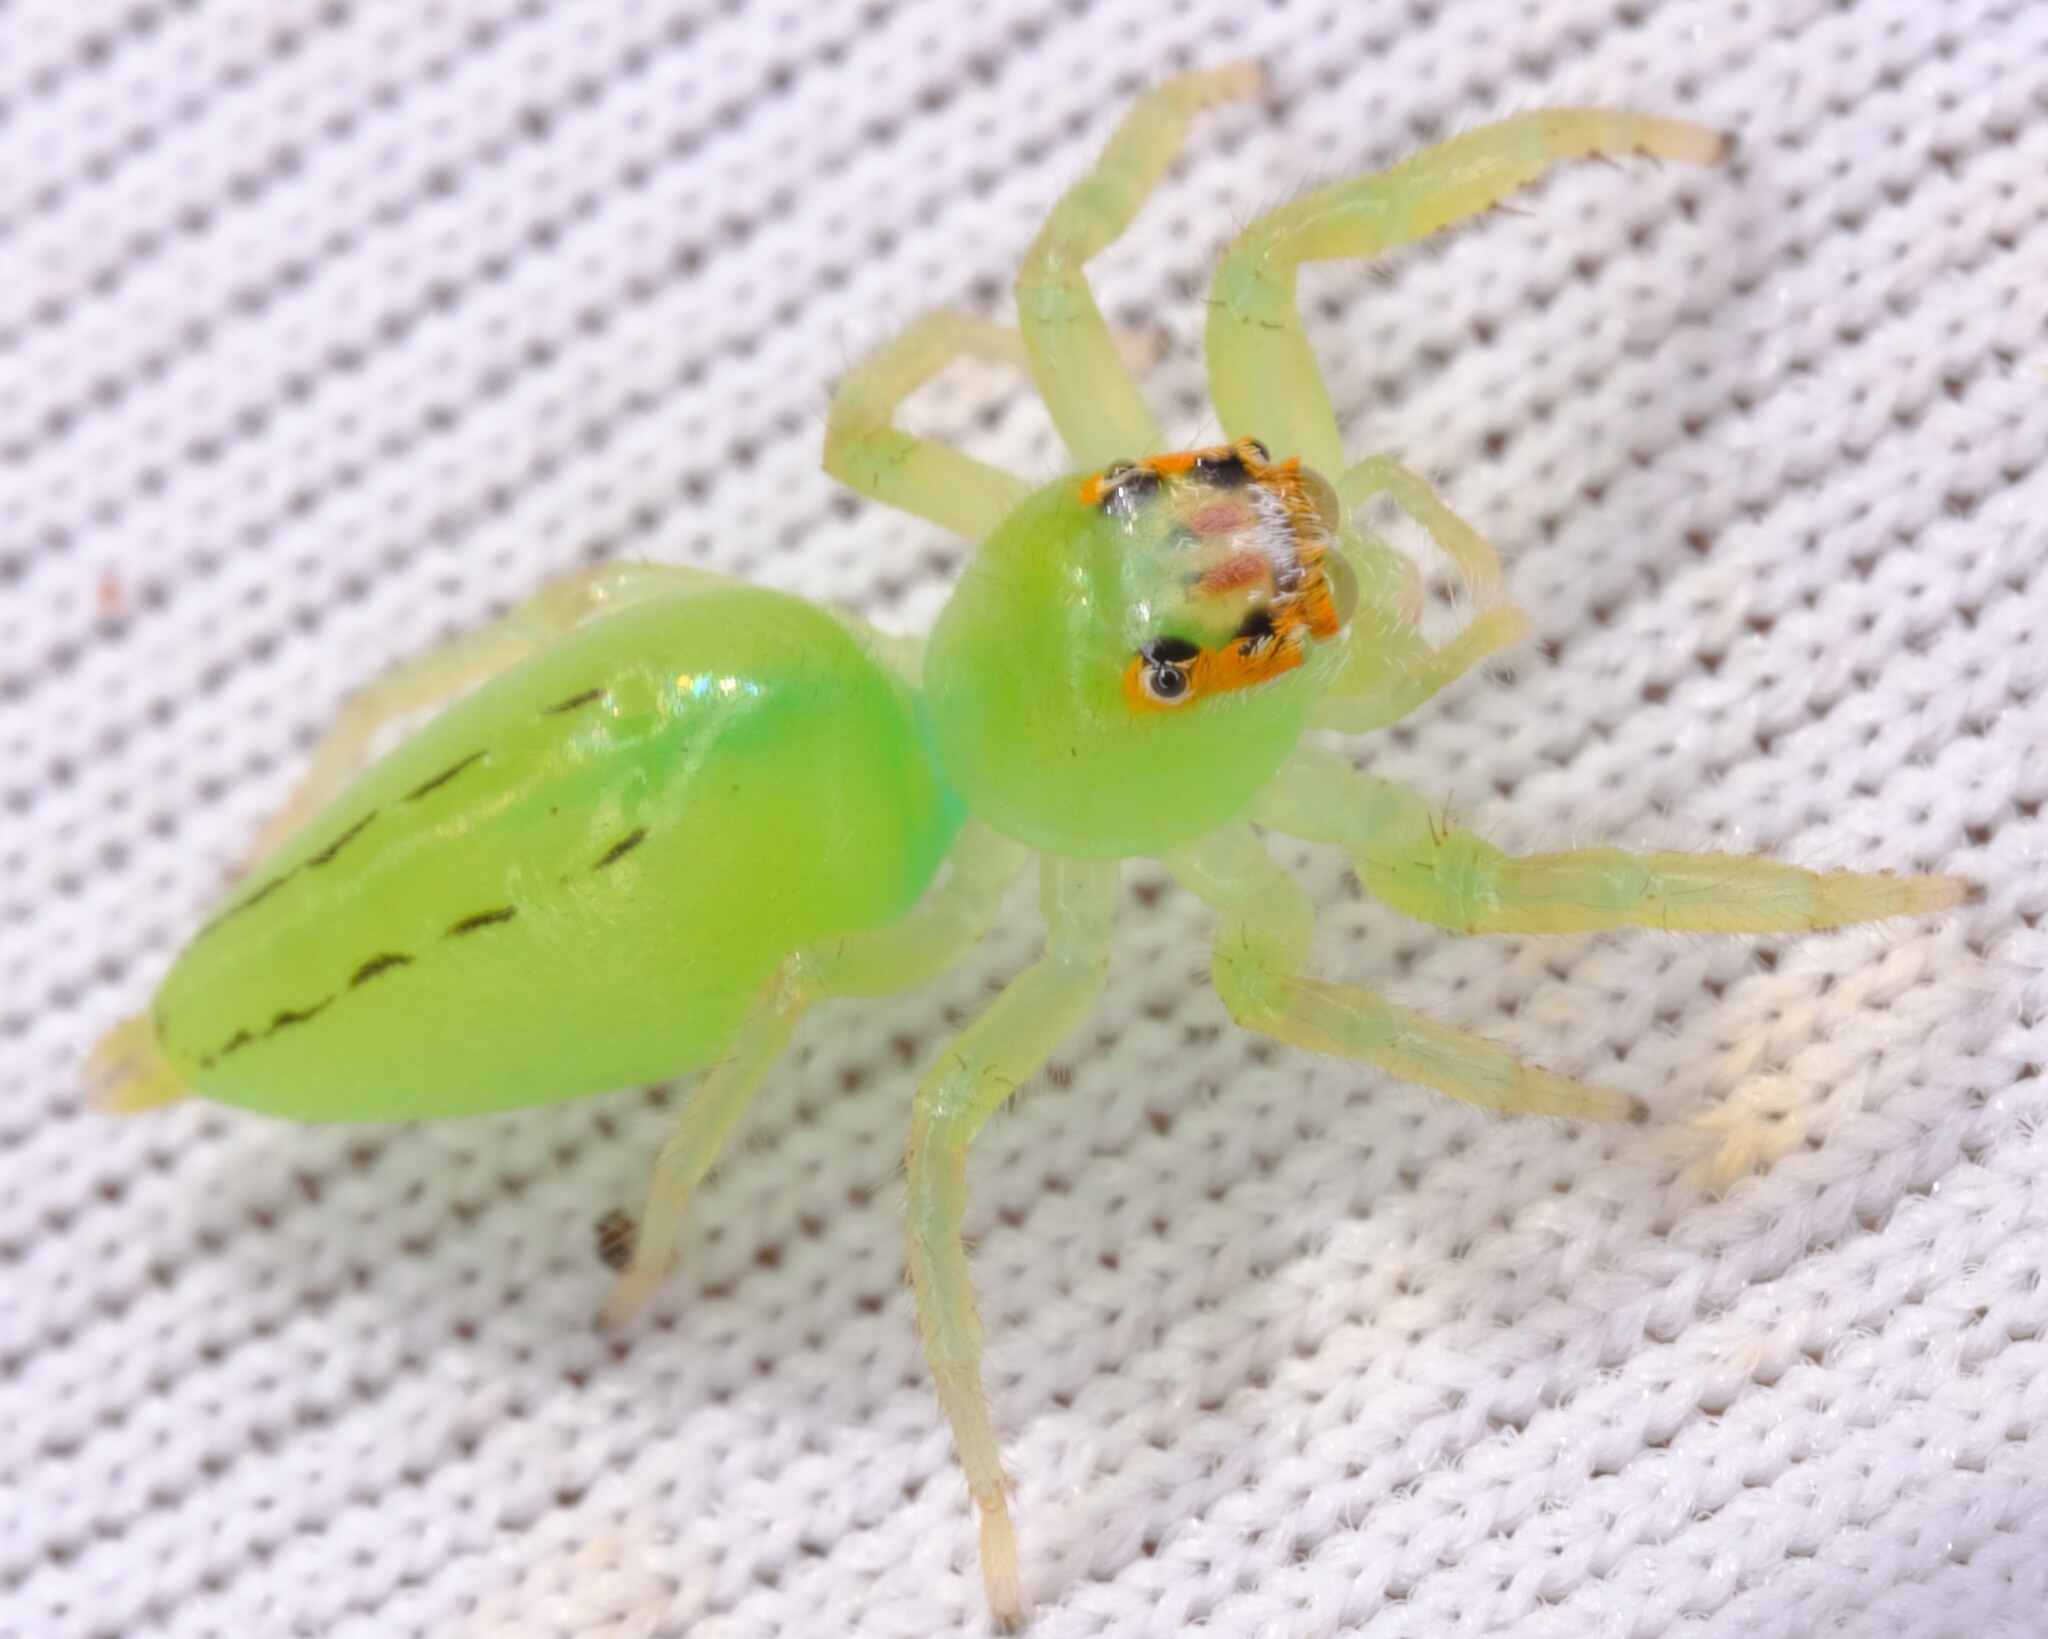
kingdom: Animalia
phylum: Arthropoda
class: Arachnida
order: Araneae
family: Salticidae
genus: Mopsus
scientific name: Mopsus mormon
